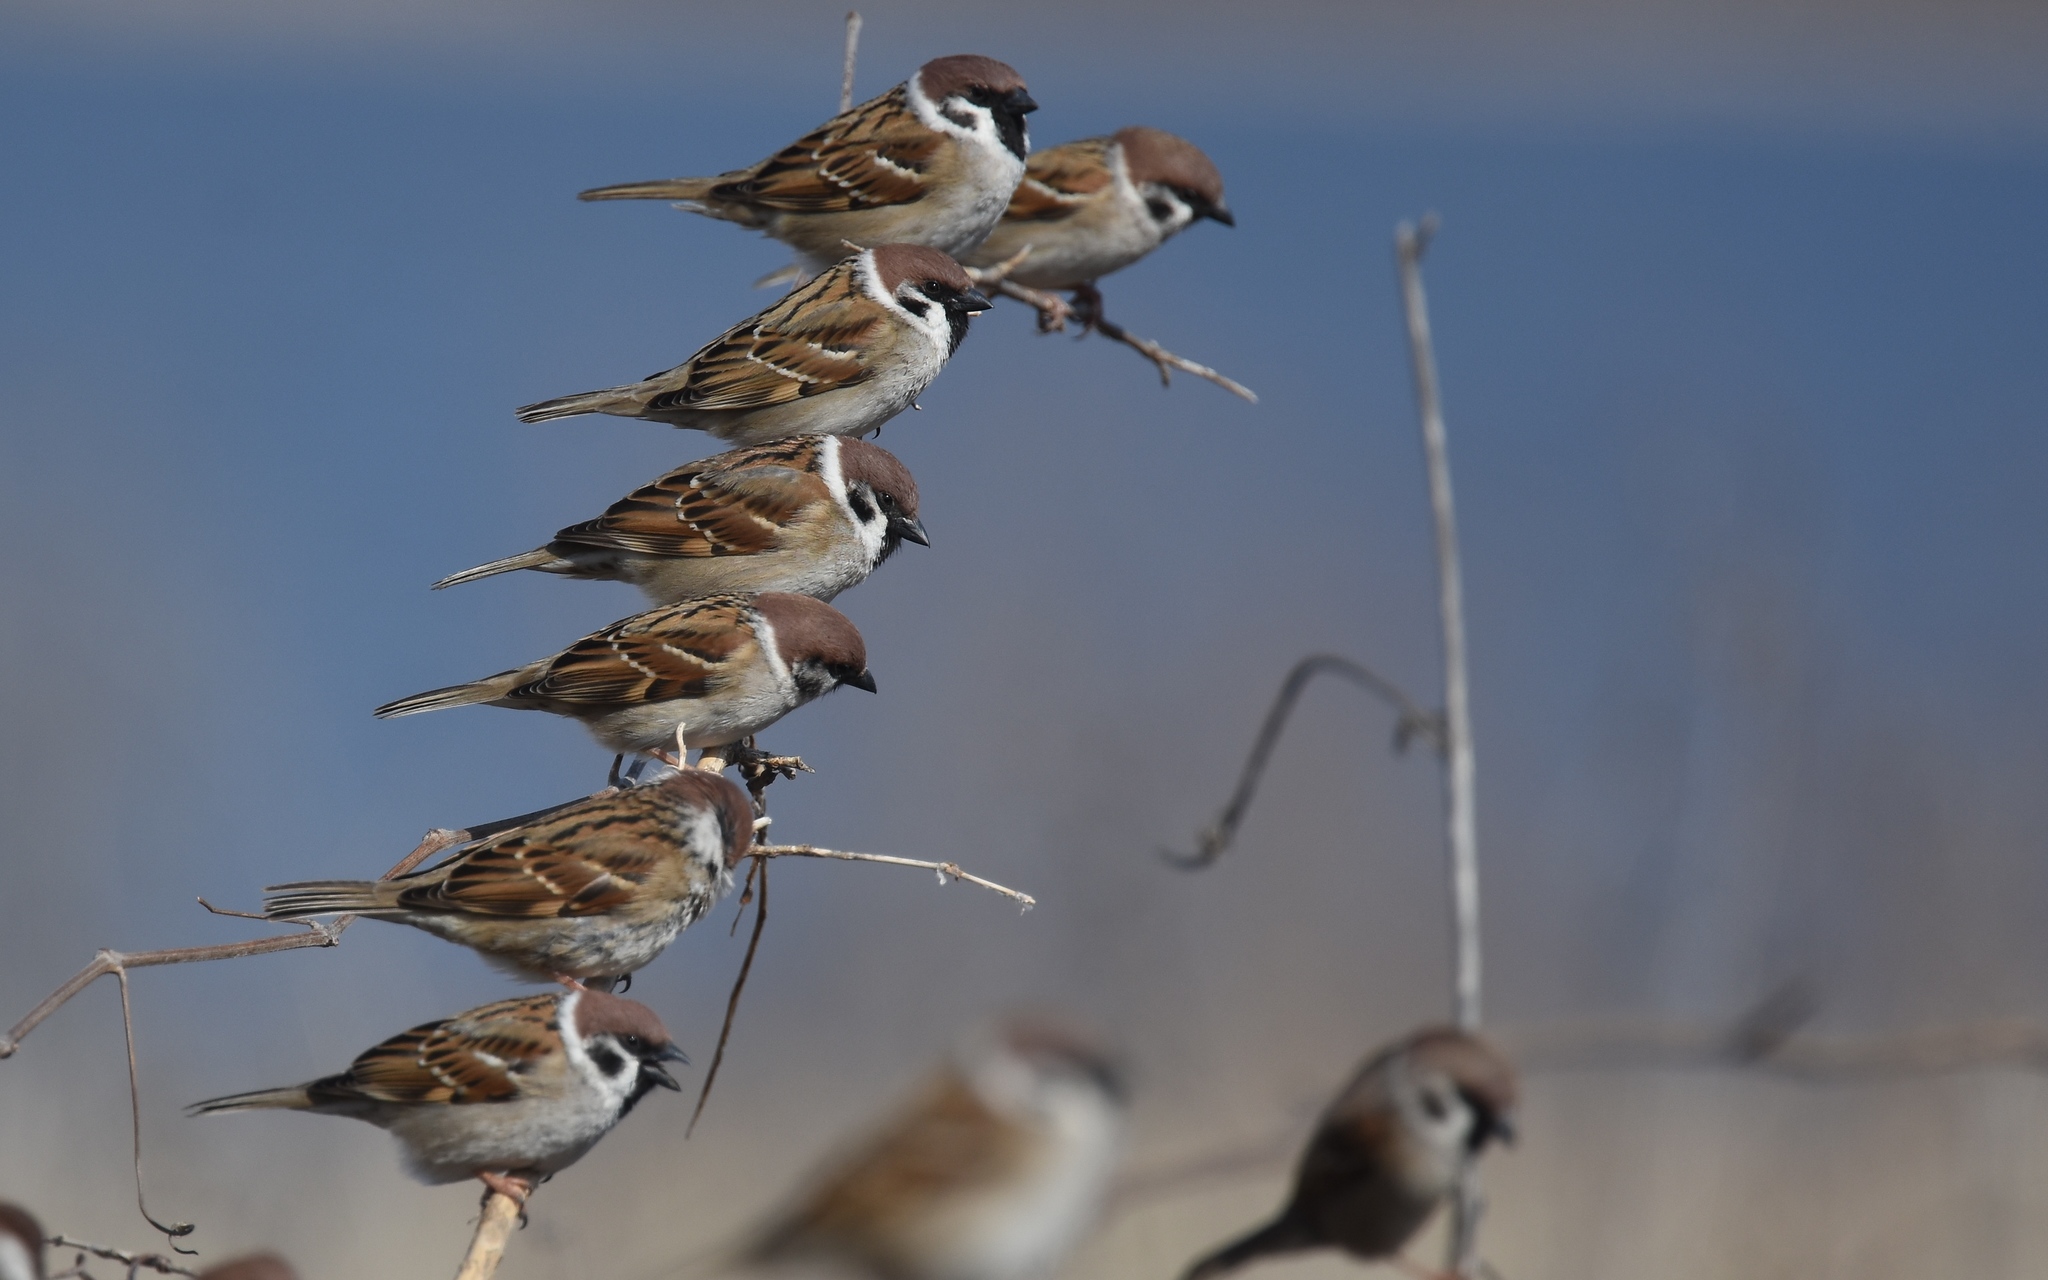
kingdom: Animalia
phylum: Chordata
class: Aves
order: Passeriformes
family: Passeridae
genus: Passer
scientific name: Passer montanus
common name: Eurasian tree sparrow
